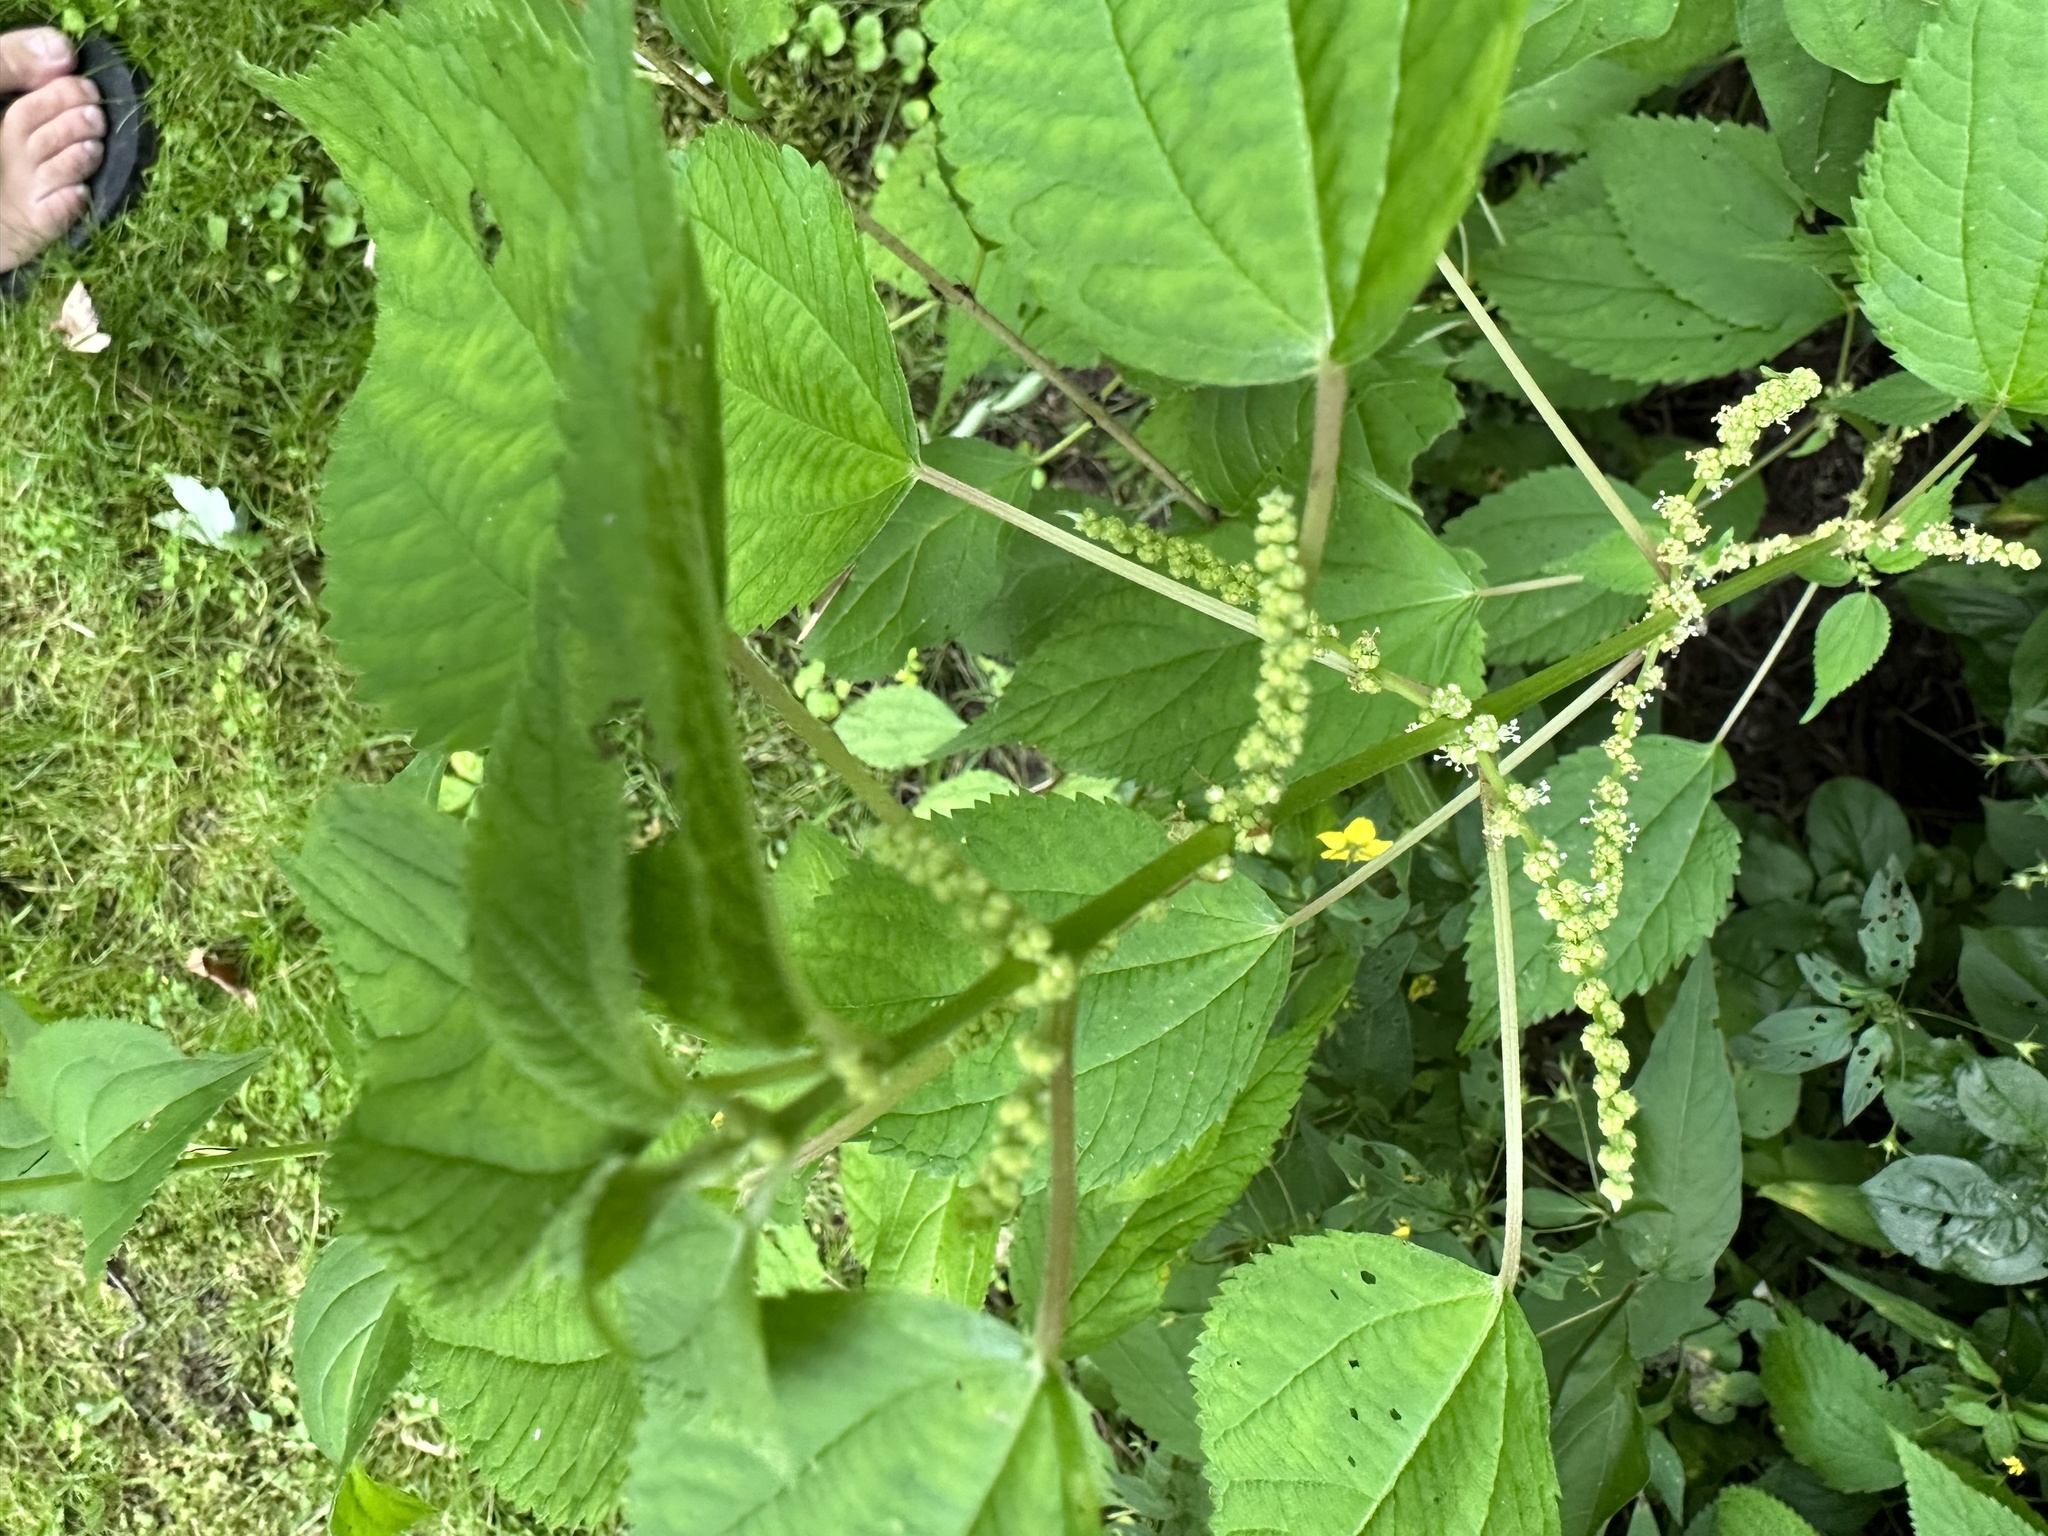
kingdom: Plantae
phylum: Tracheophyta
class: Magnoliopsida
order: Rosales
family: Urticaceae
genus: Boehmeria
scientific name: Boehmeria cylindrica
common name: Bog-hemp
